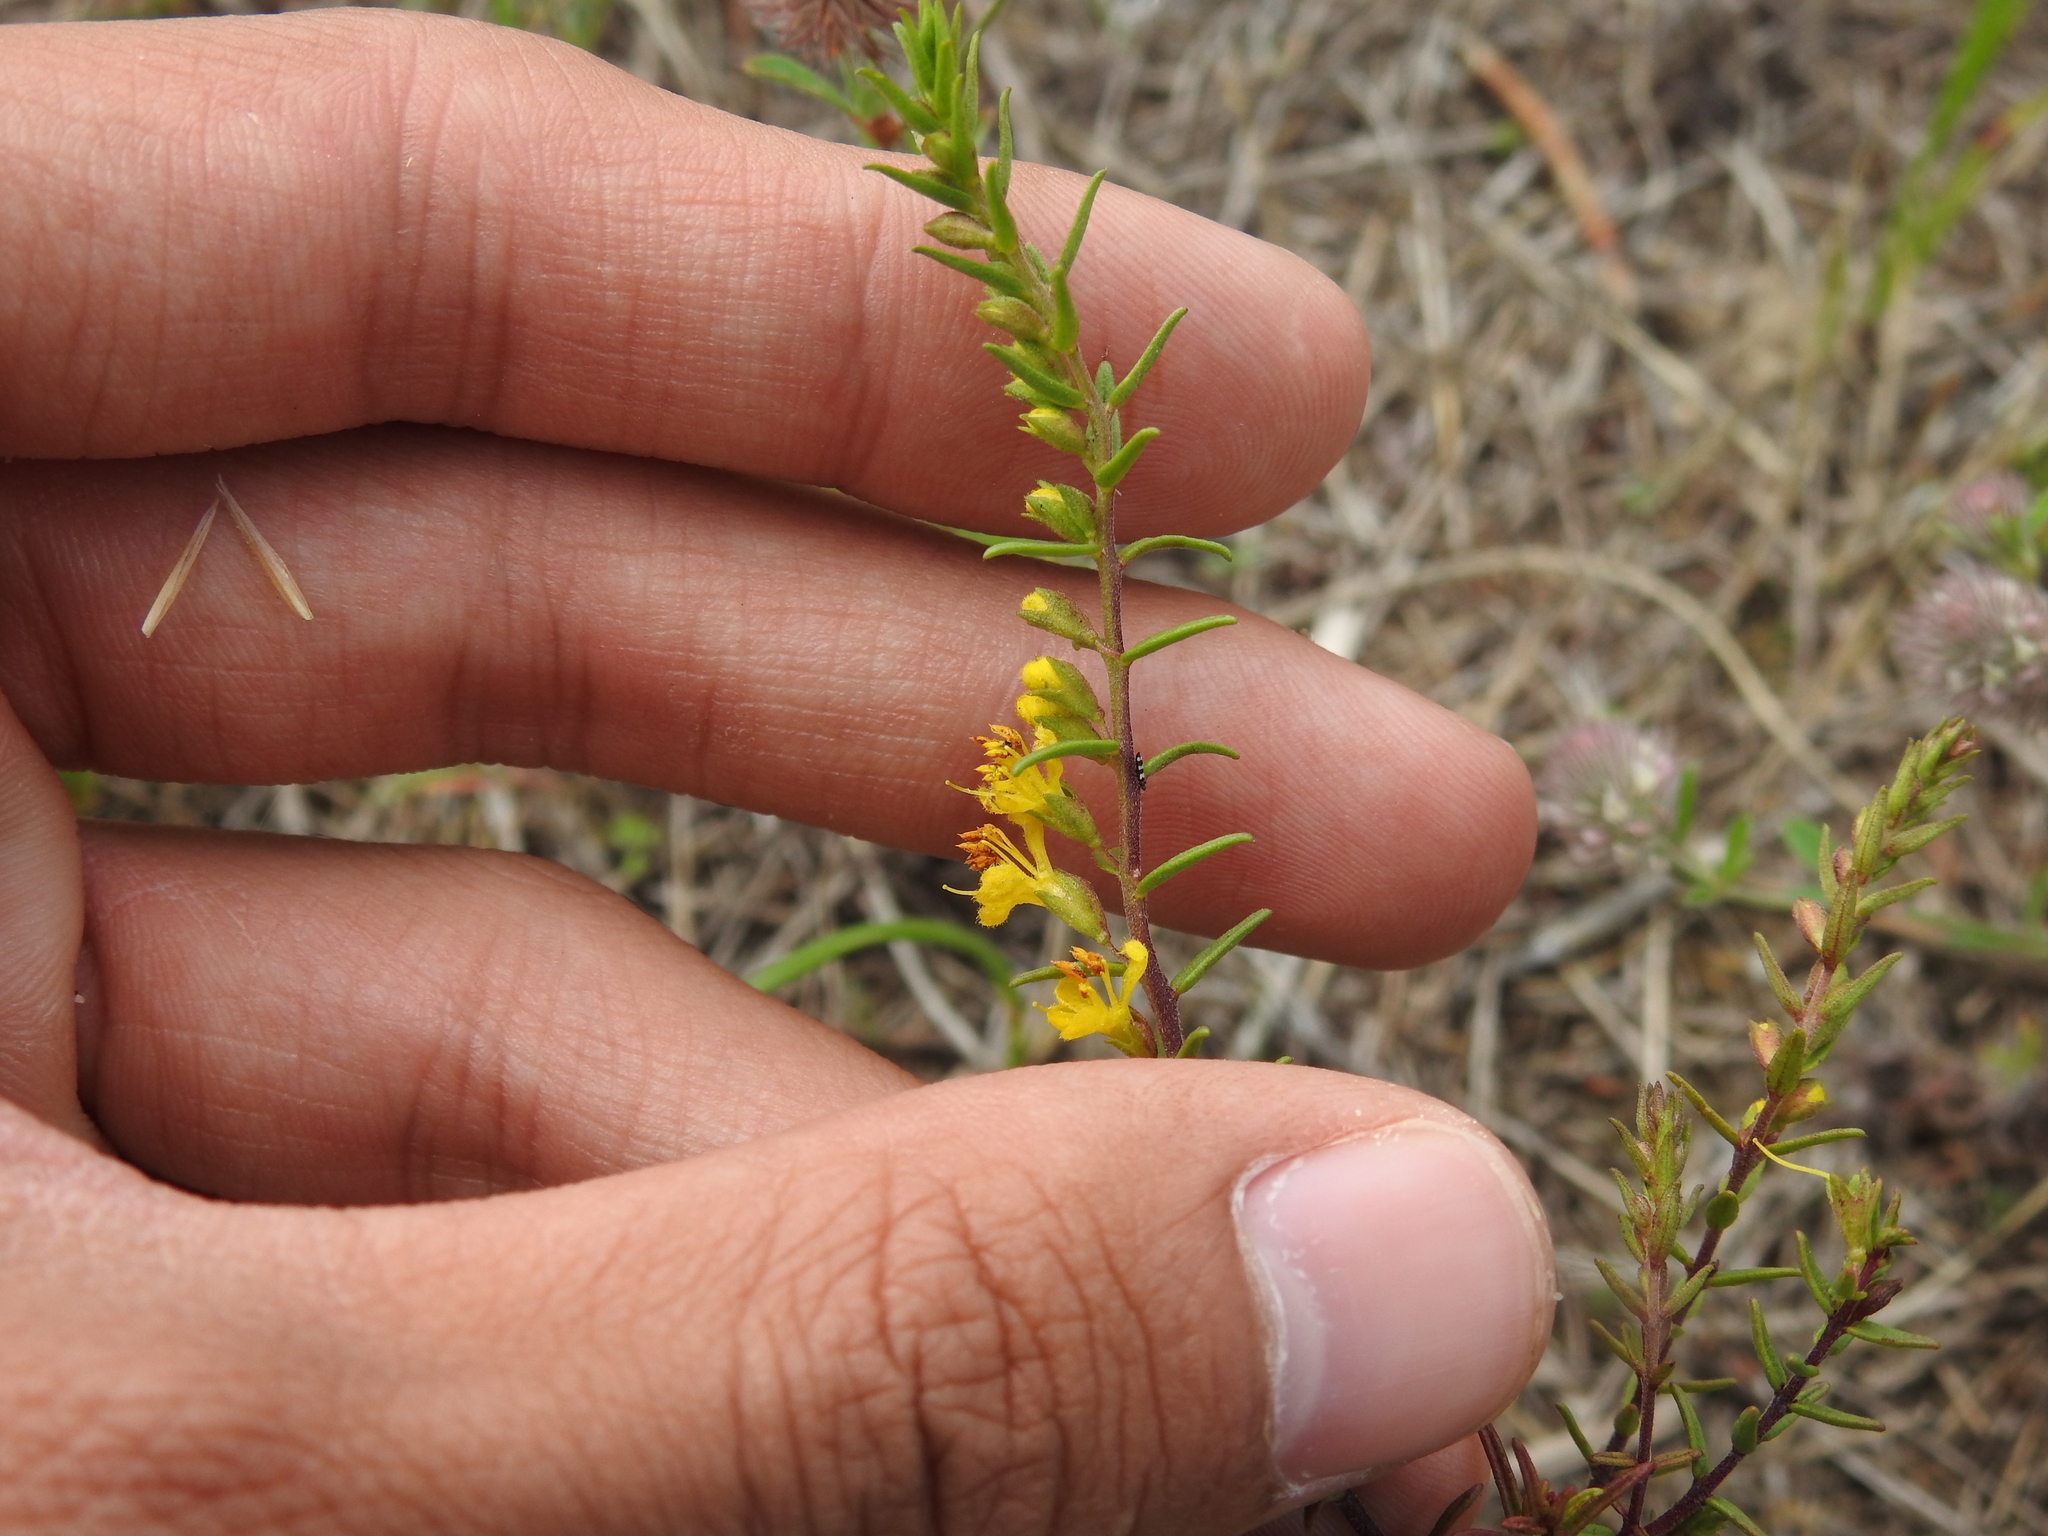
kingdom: Plantae
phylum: Tracheophyta
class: Magnoliopsida
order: Lamiales
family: Orobanchaceae
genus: Odontites
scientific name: Odontites luteus
